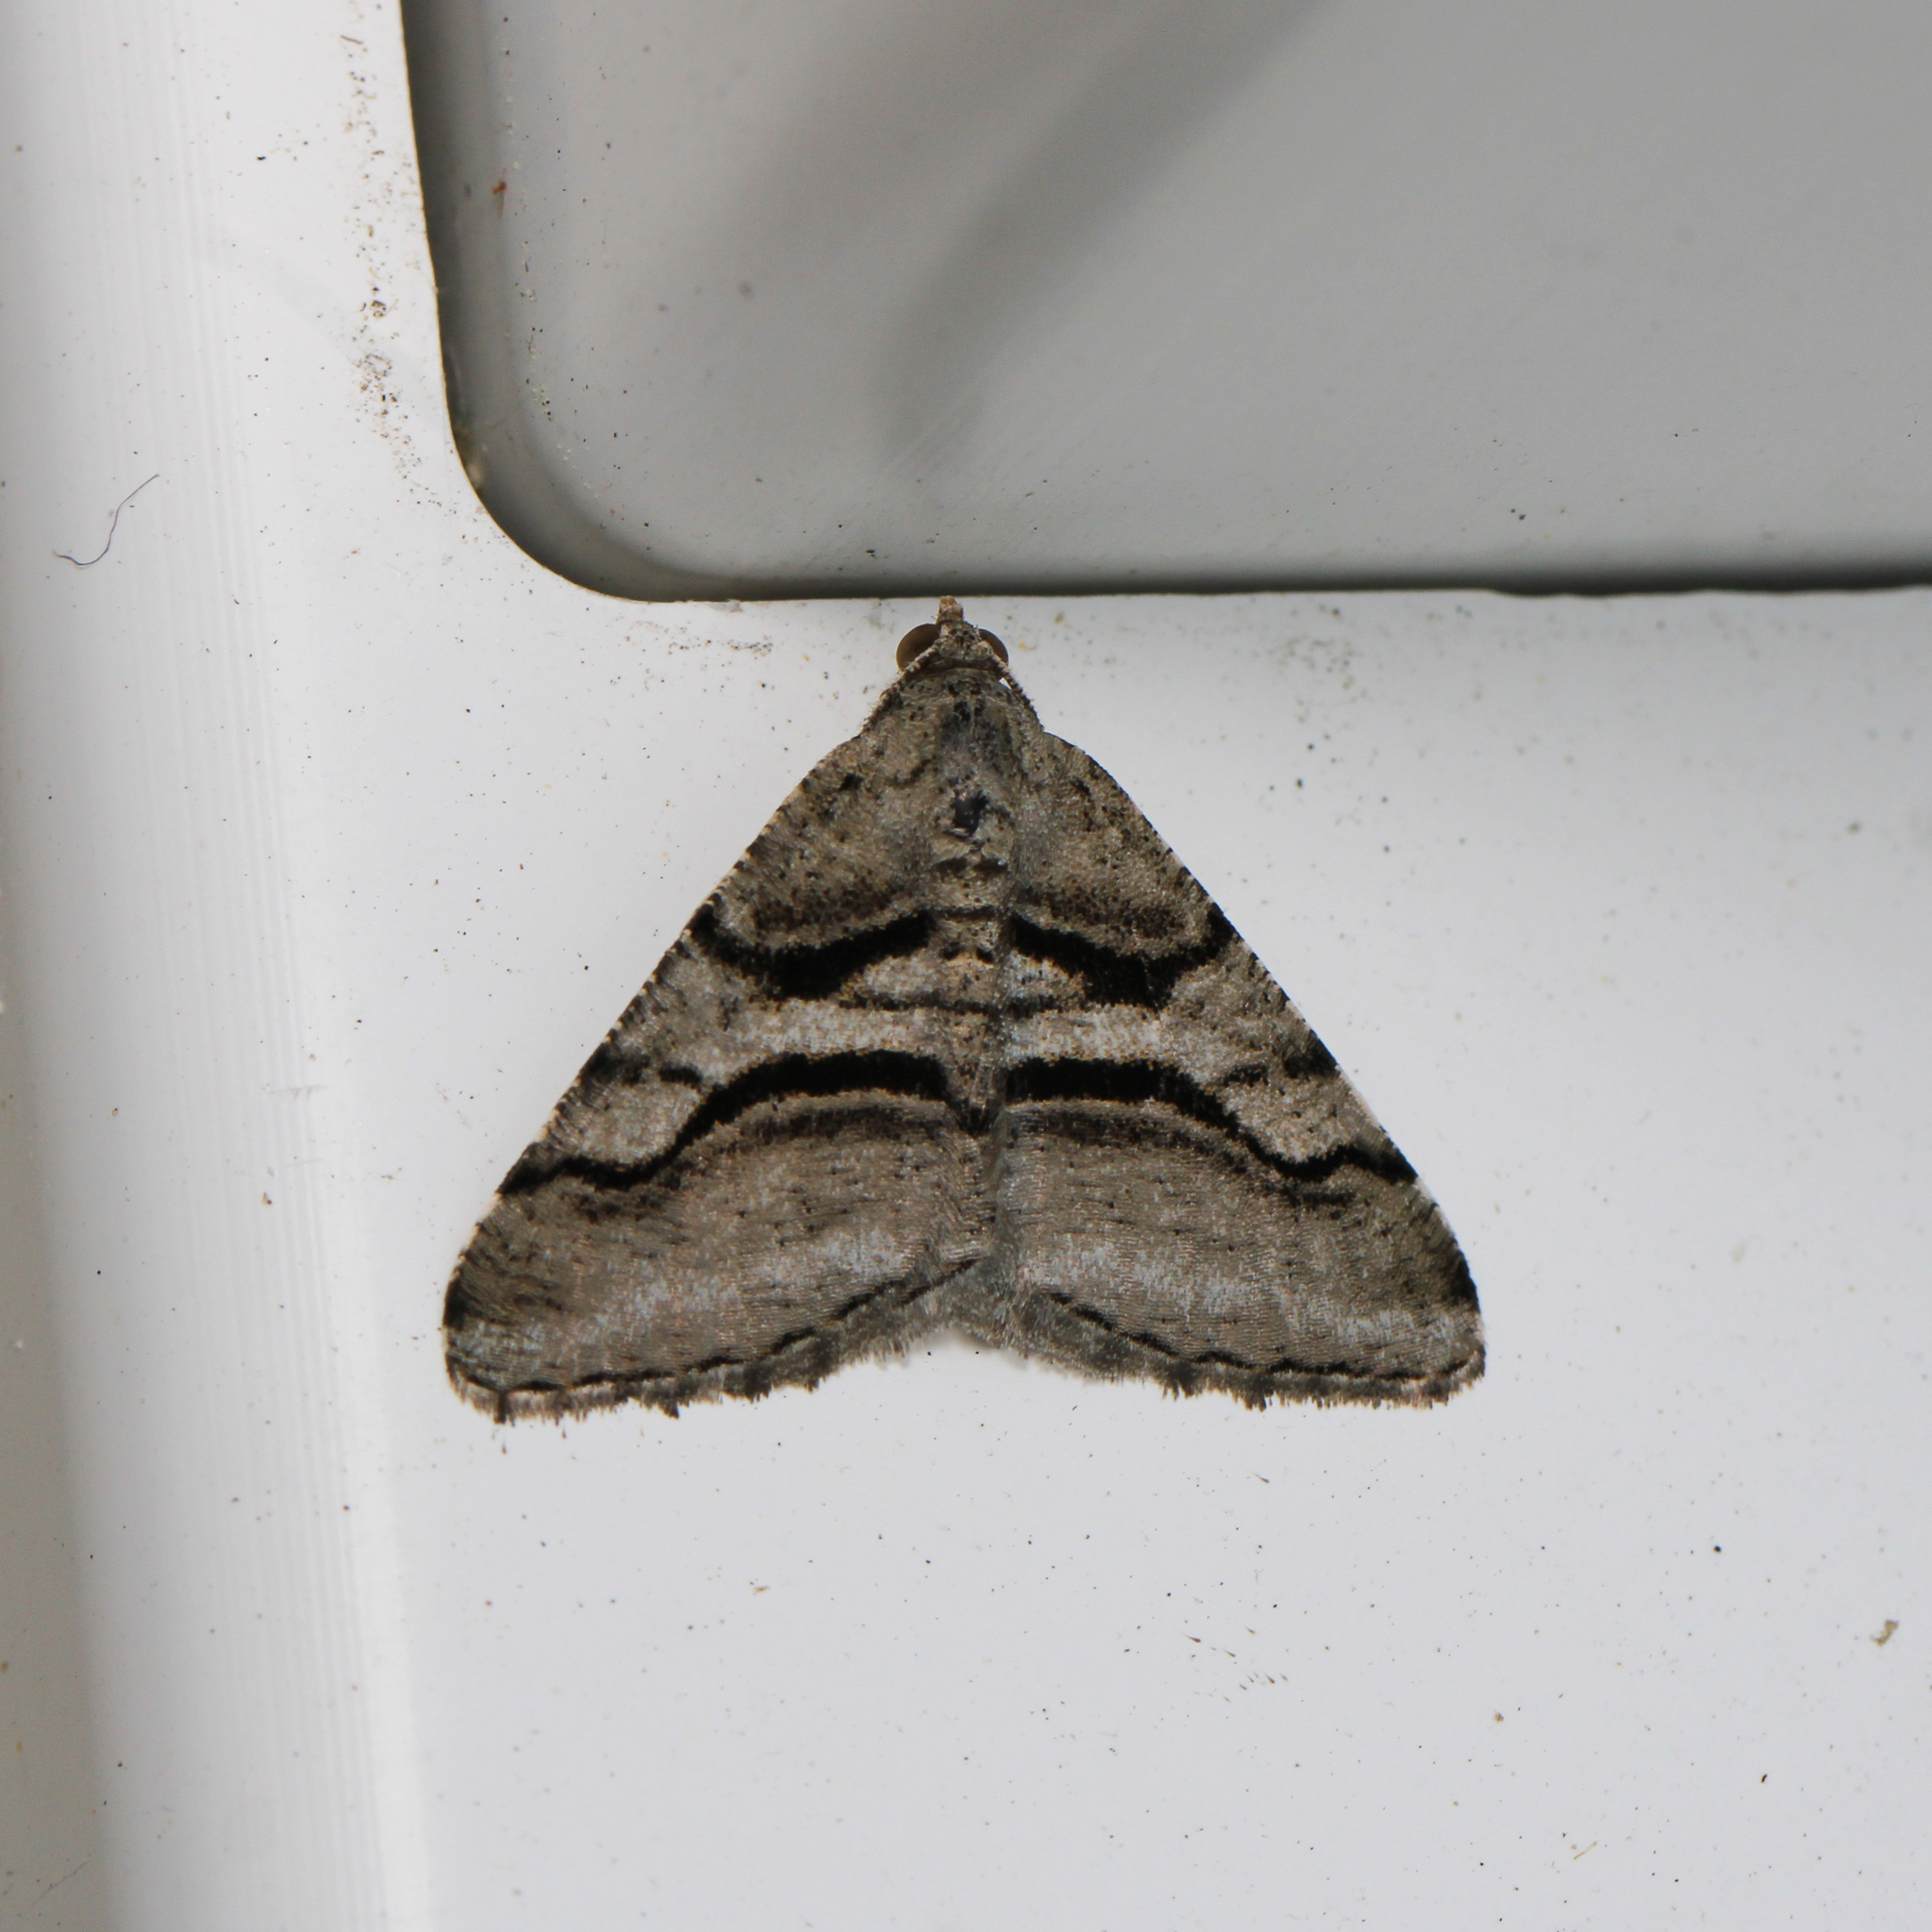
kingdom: Animalia
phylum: Arthropoda
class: Insecta
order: Lepidoptera
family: Geometridae
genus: Digrammia
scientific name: Digrammia continuata
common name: Curve-lined angle
